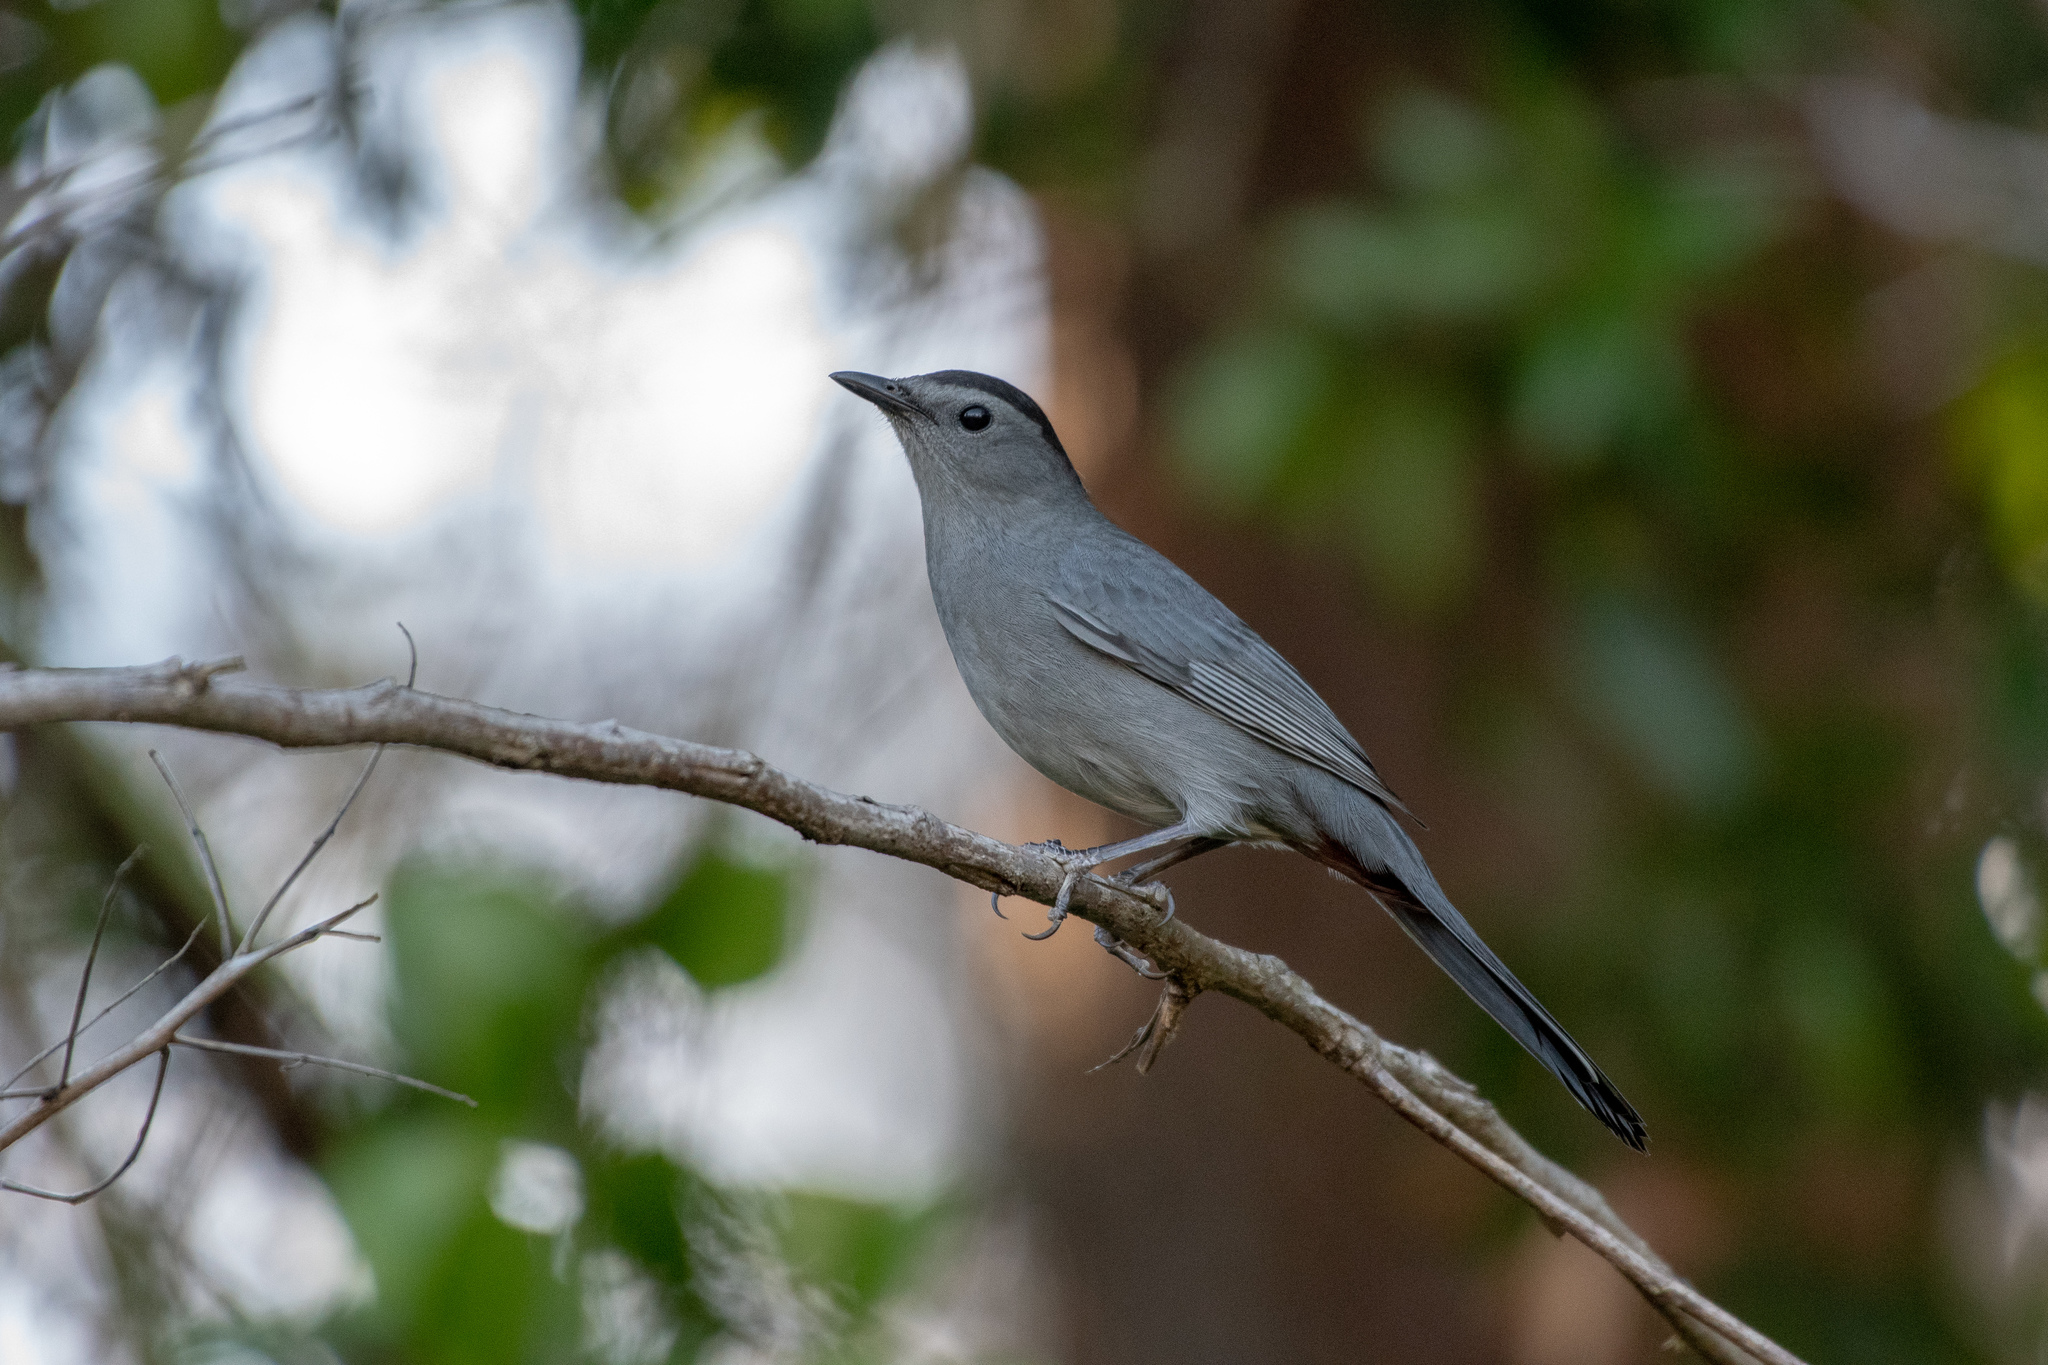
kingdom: Animalia
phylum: Chordata
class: Aves
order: Passeriformes
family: Mimidae
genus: Dumetella
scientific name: Dumetella carolinensis
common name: Gray catbird
